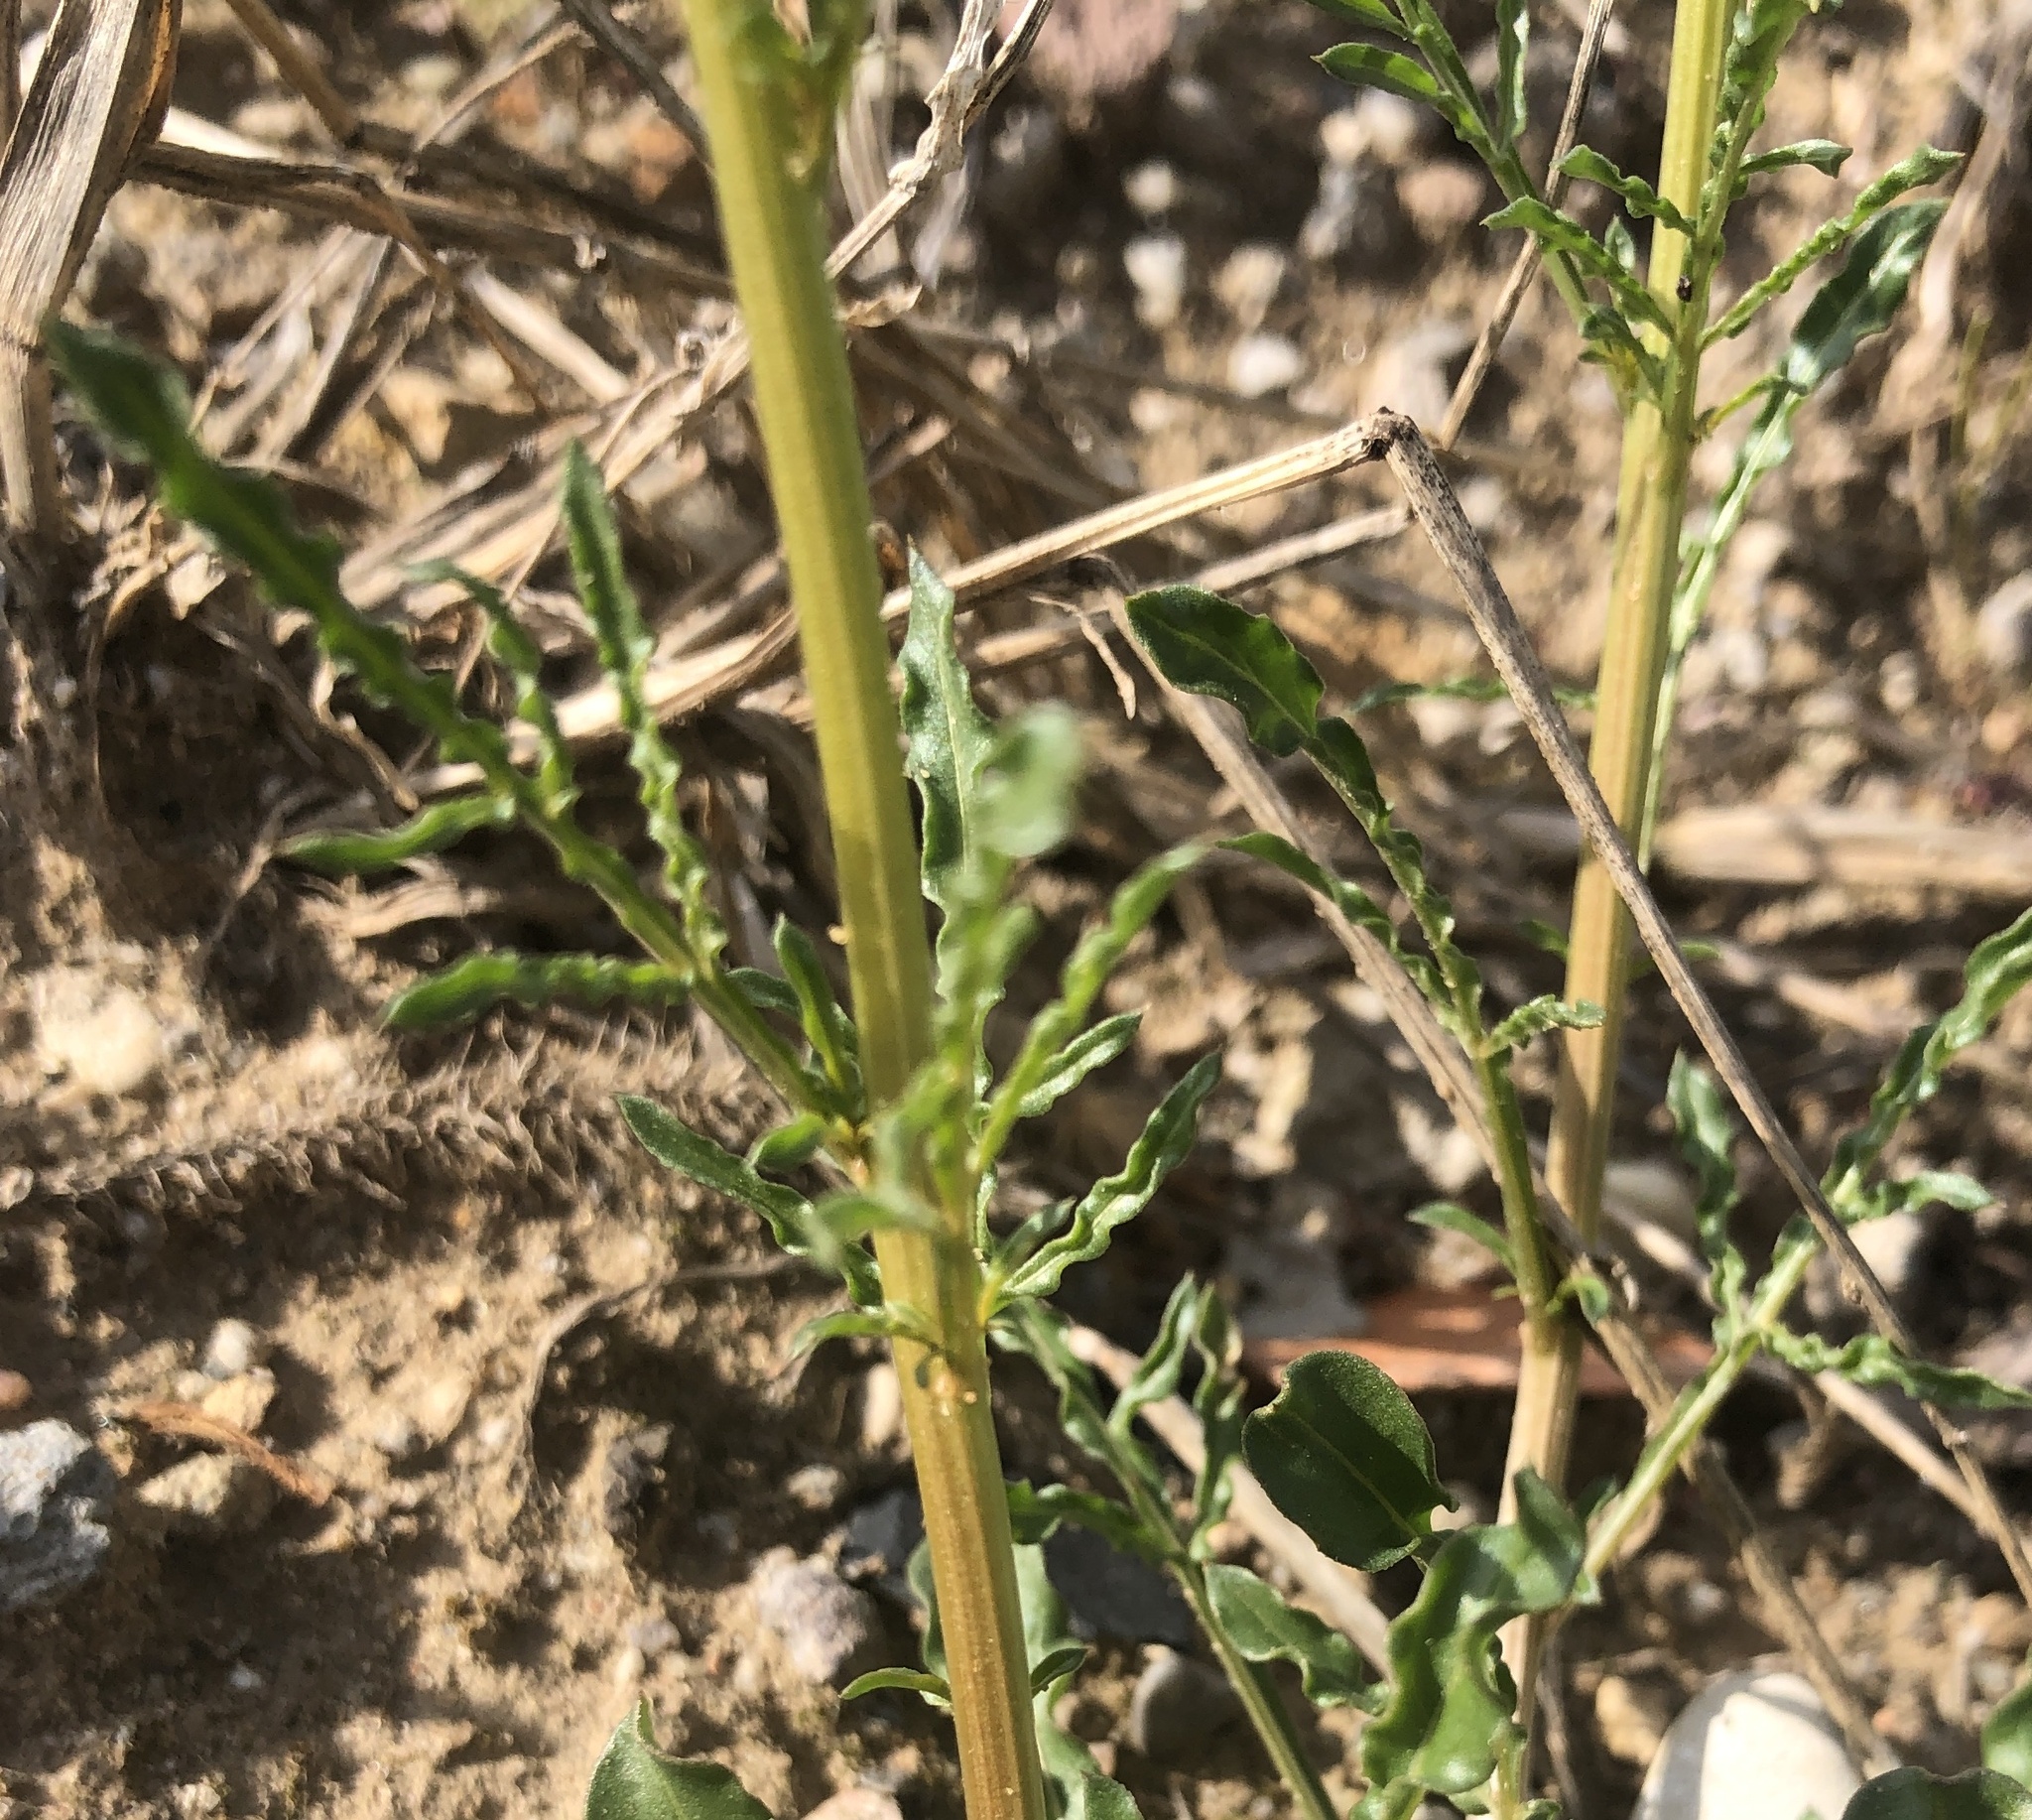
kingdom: Plantae
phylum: Tracheophyta
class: Magnoliopsida
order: Brassicales
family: Resedaceae
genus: Reseda
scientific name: Reseda lutea
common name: Wild mignonette
